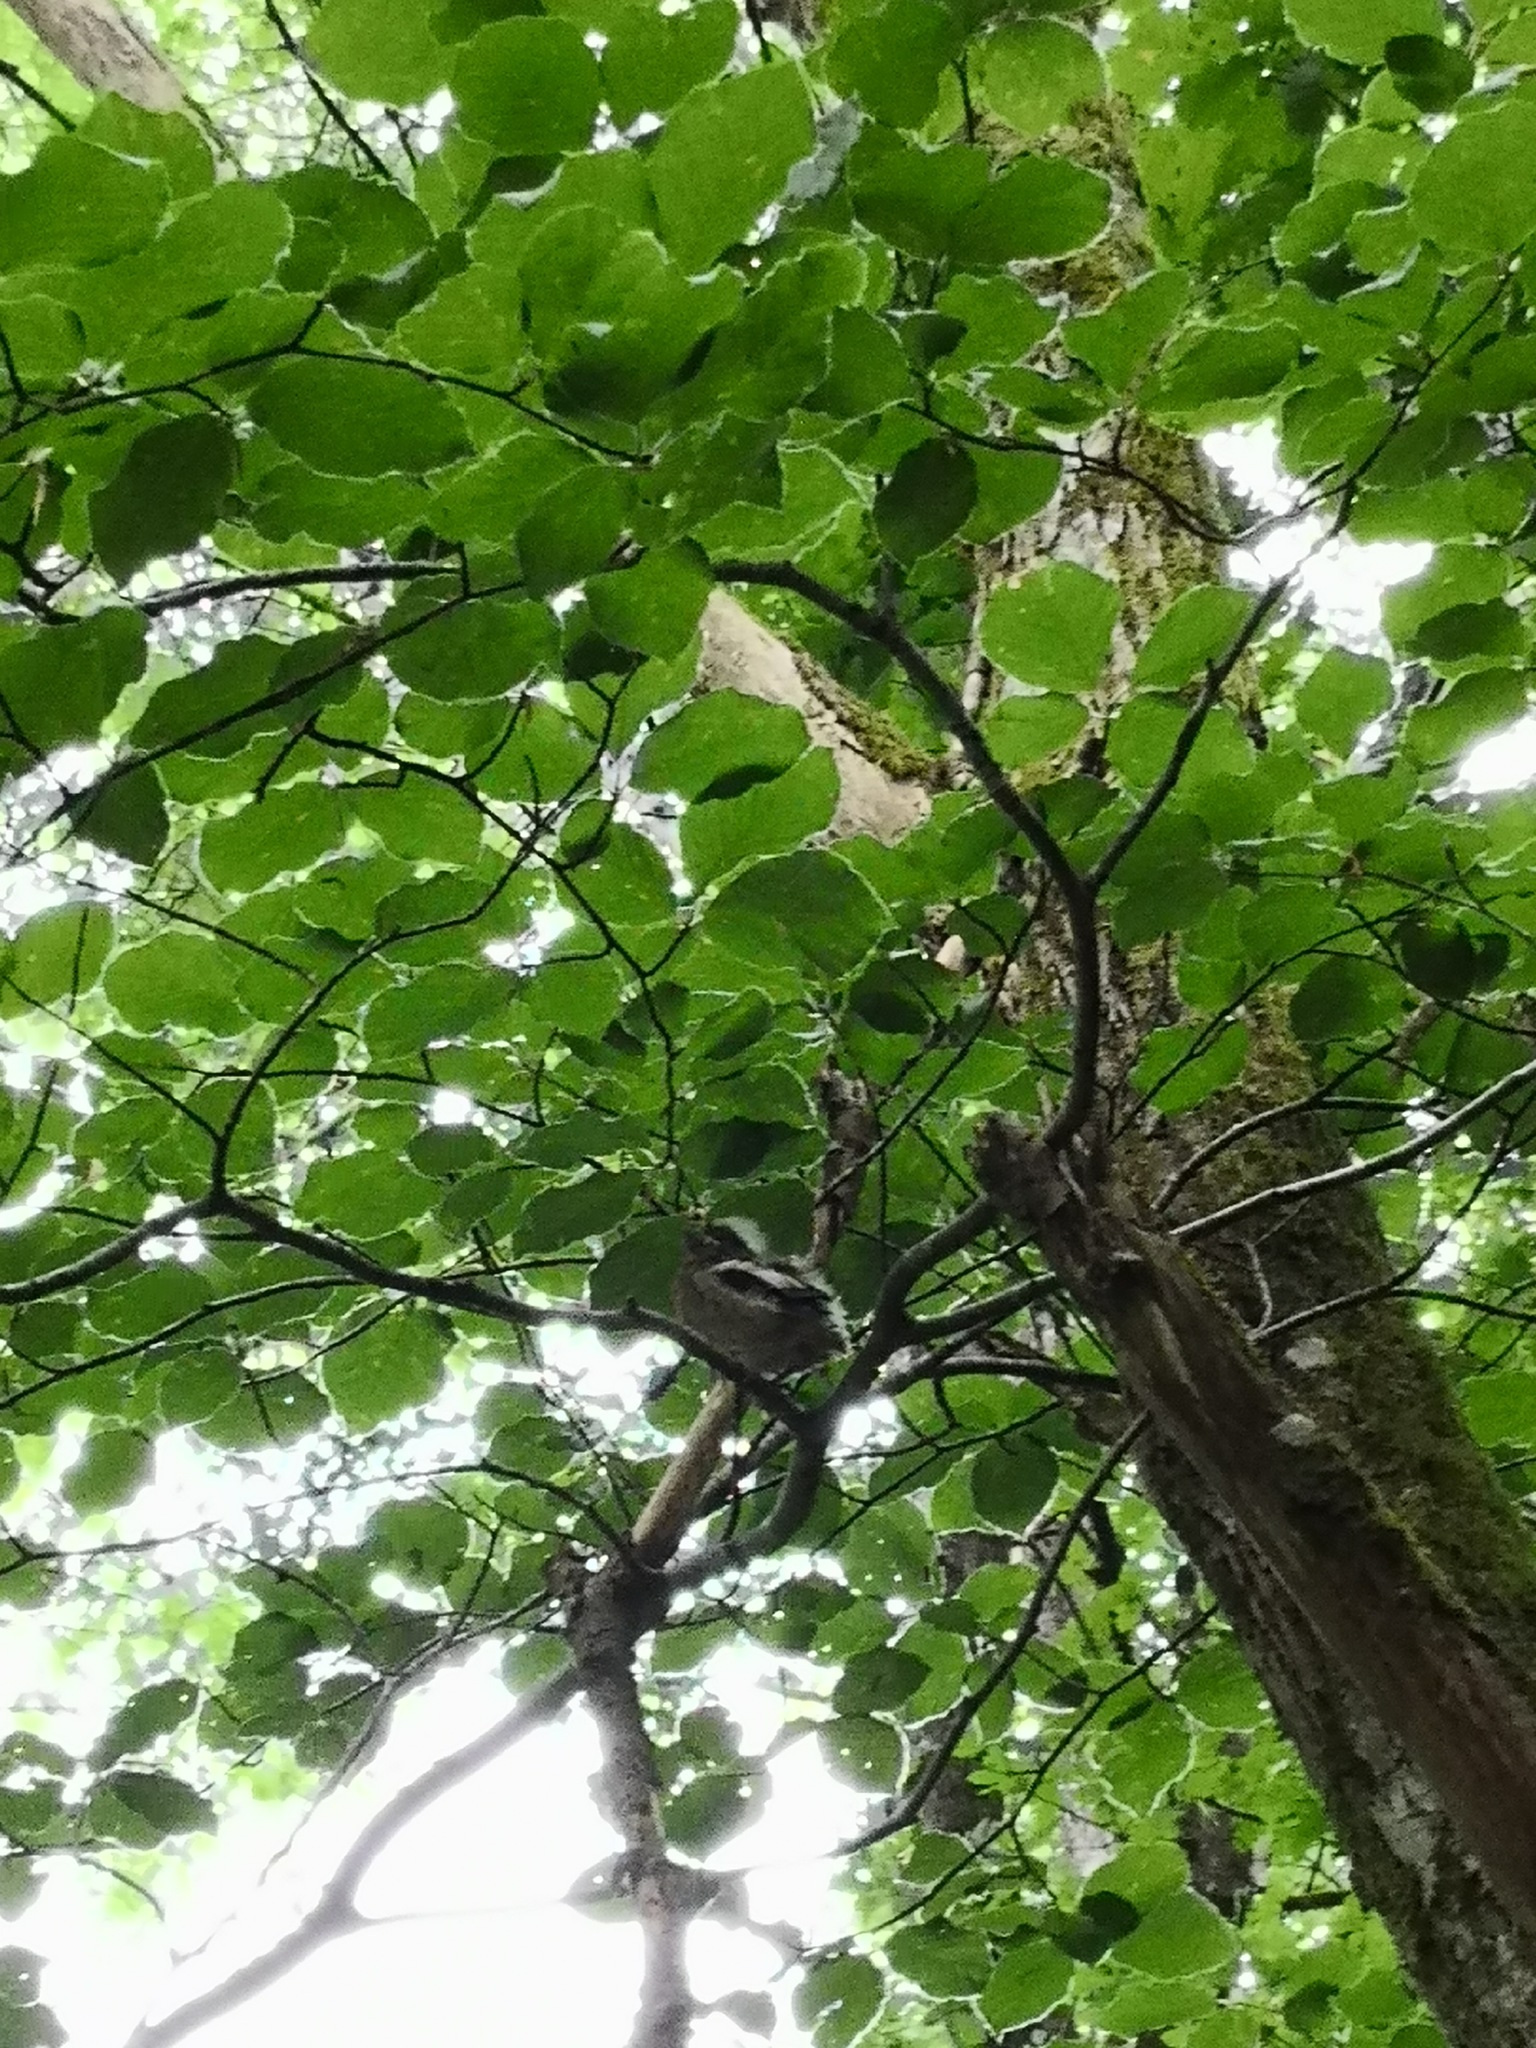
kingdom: Animalia
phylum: Chordata
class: Aves
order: Passeriformes
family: Fringillidae
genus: Fringilla
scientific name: Fringilla coelebs
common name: Common chaffinch
